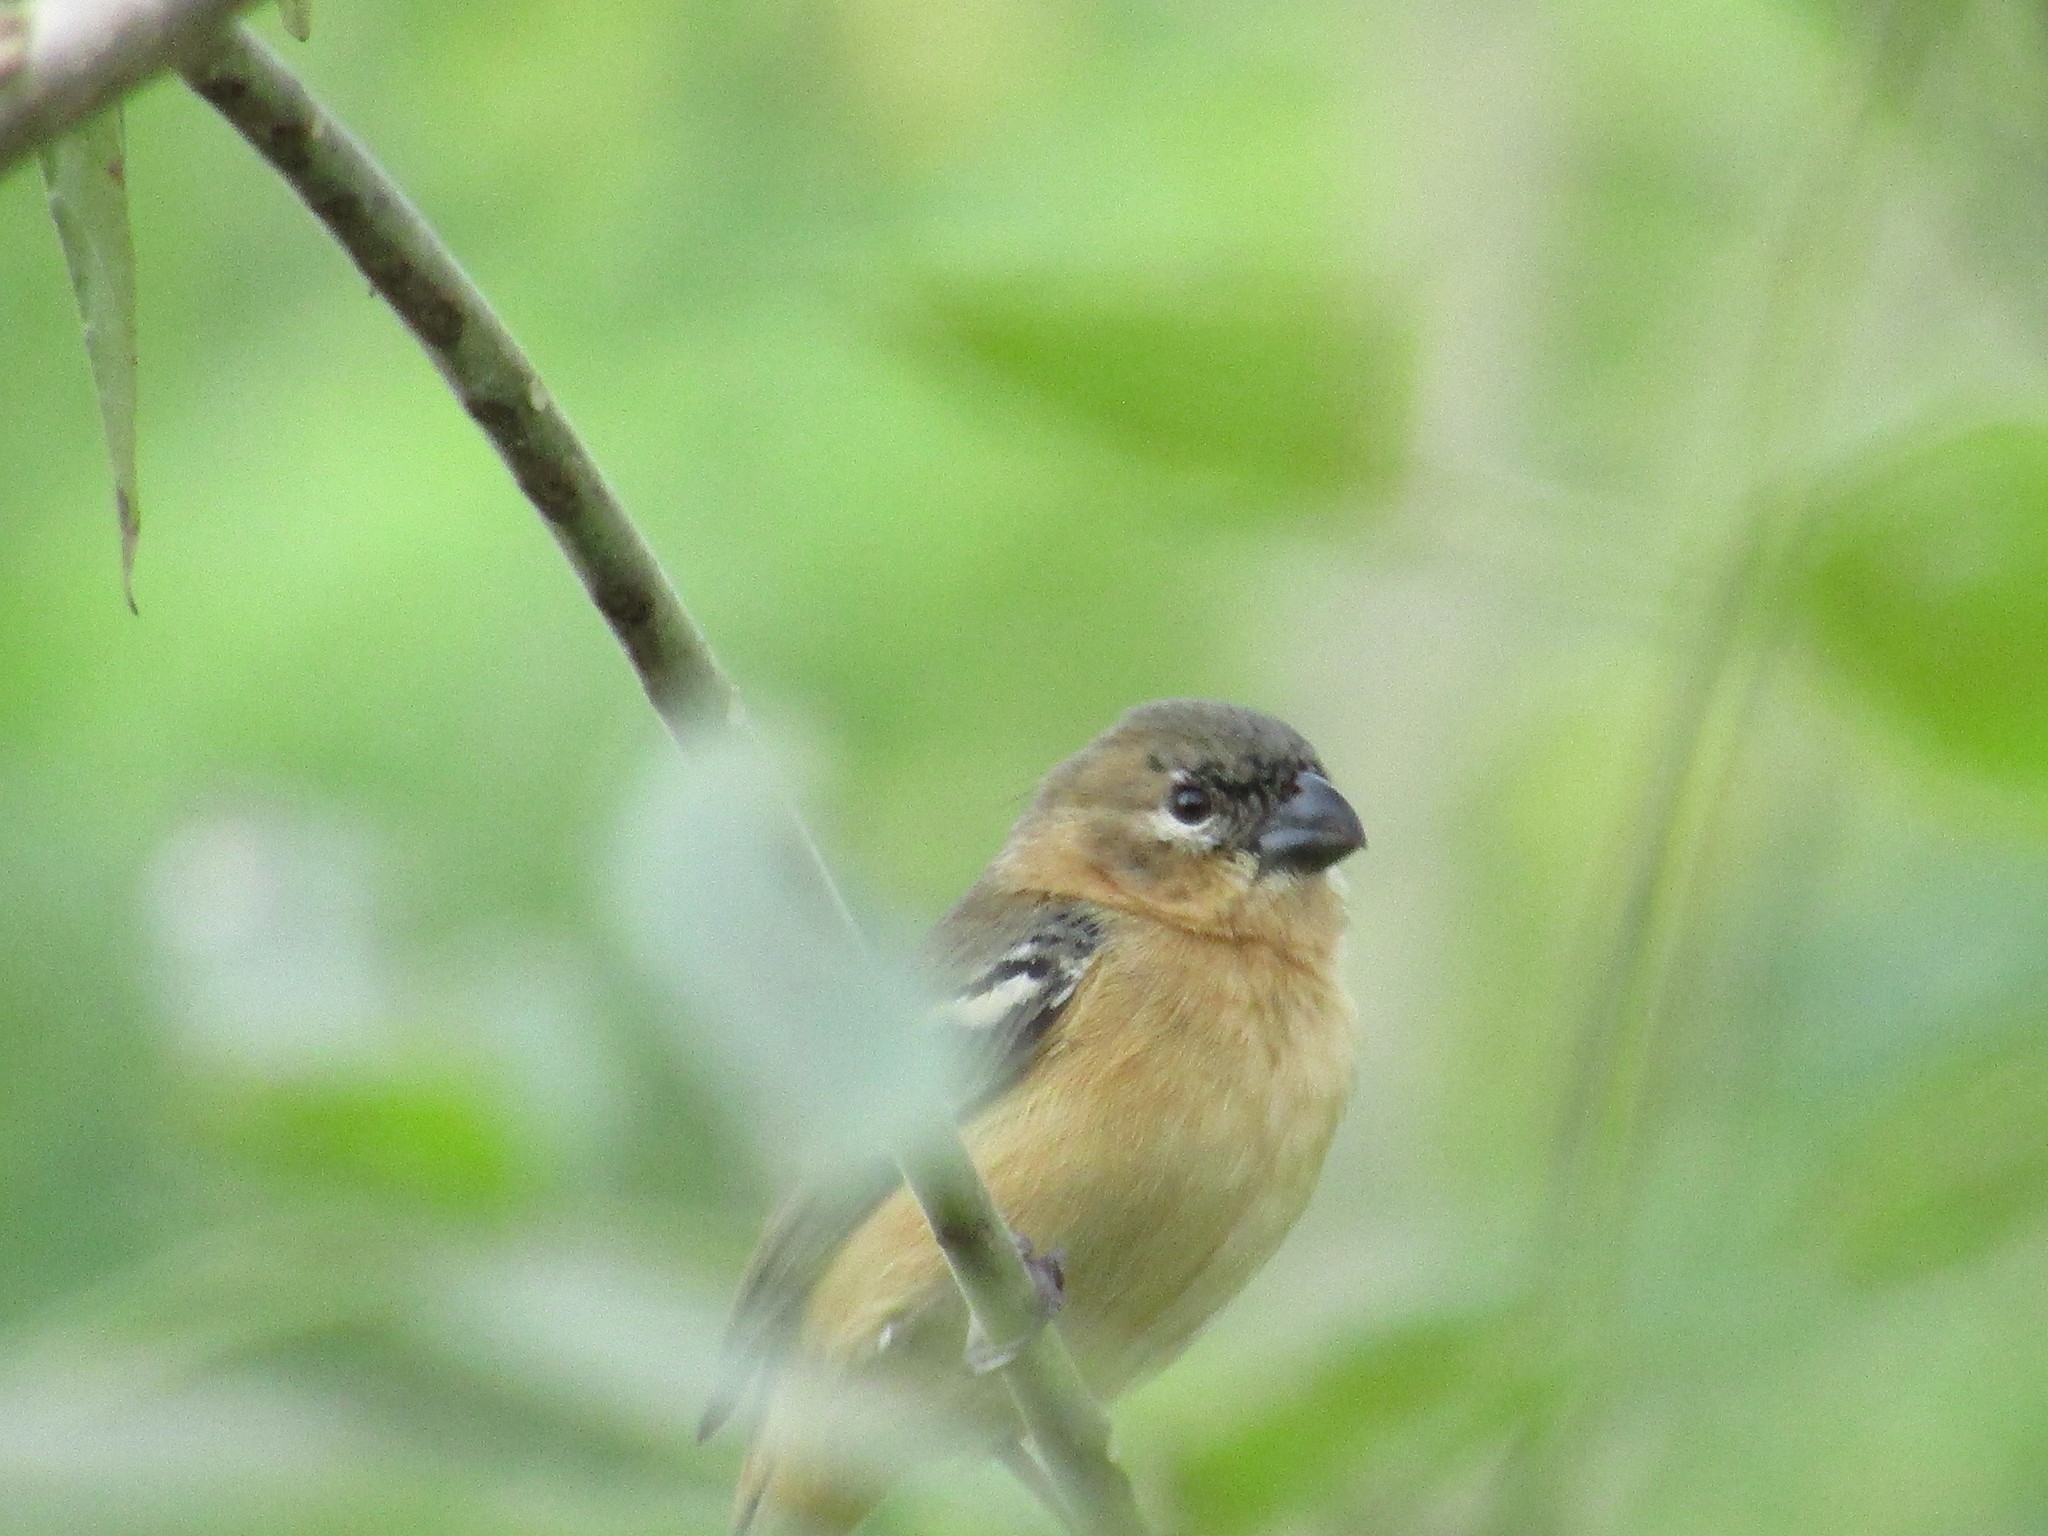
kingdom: Animalia
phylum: Chordata
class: Aves
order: Passeriformes
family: Thraupidae
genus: Sporophila
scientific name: Sporophila morelleti
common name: Morelet's seedeater
